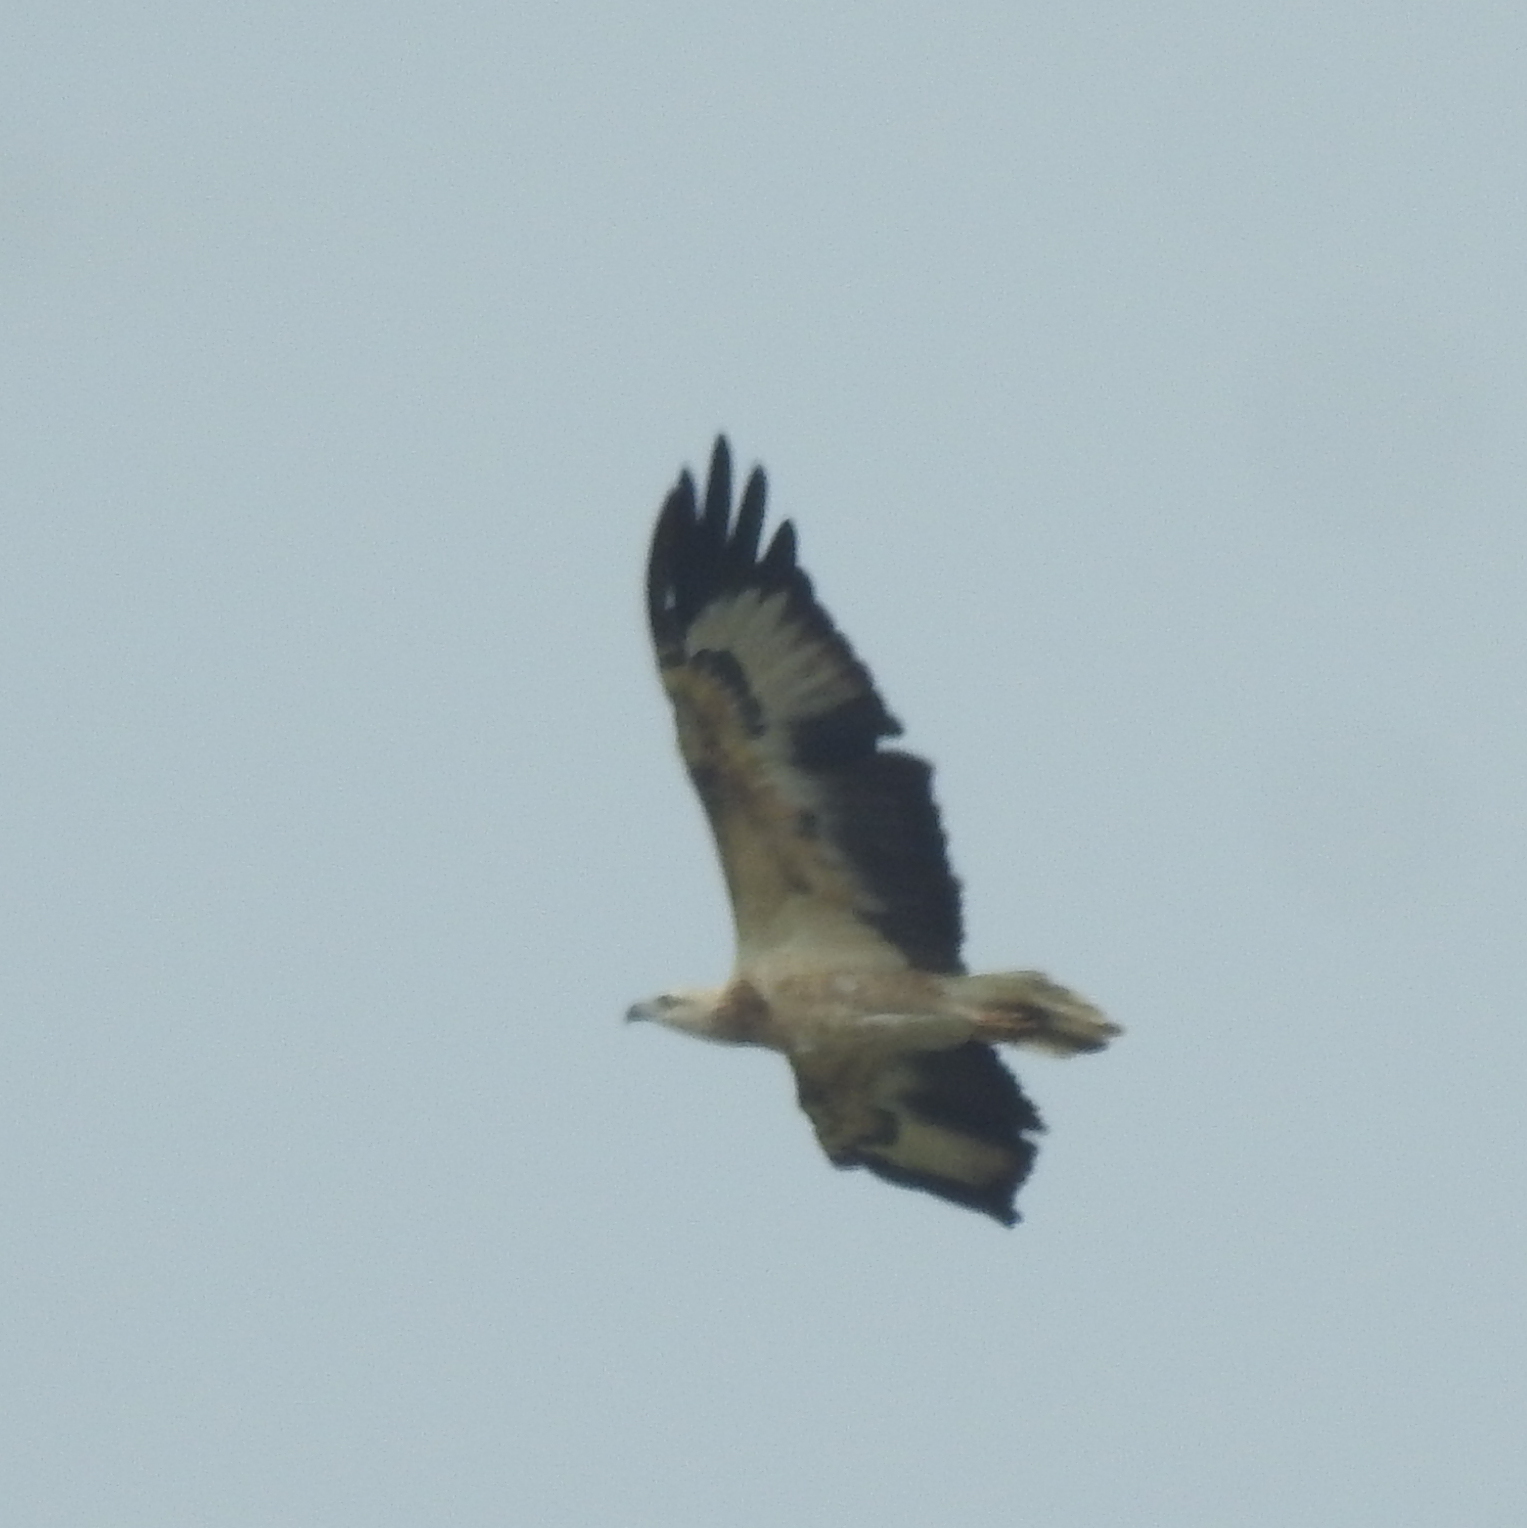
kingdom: Animalia
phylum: Chordata
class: Aves
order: Accipitriformes
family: Accipitridae
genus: Haliaeetus
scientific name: Haliaeetus leucogaster
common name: White-bellied sea eagle
